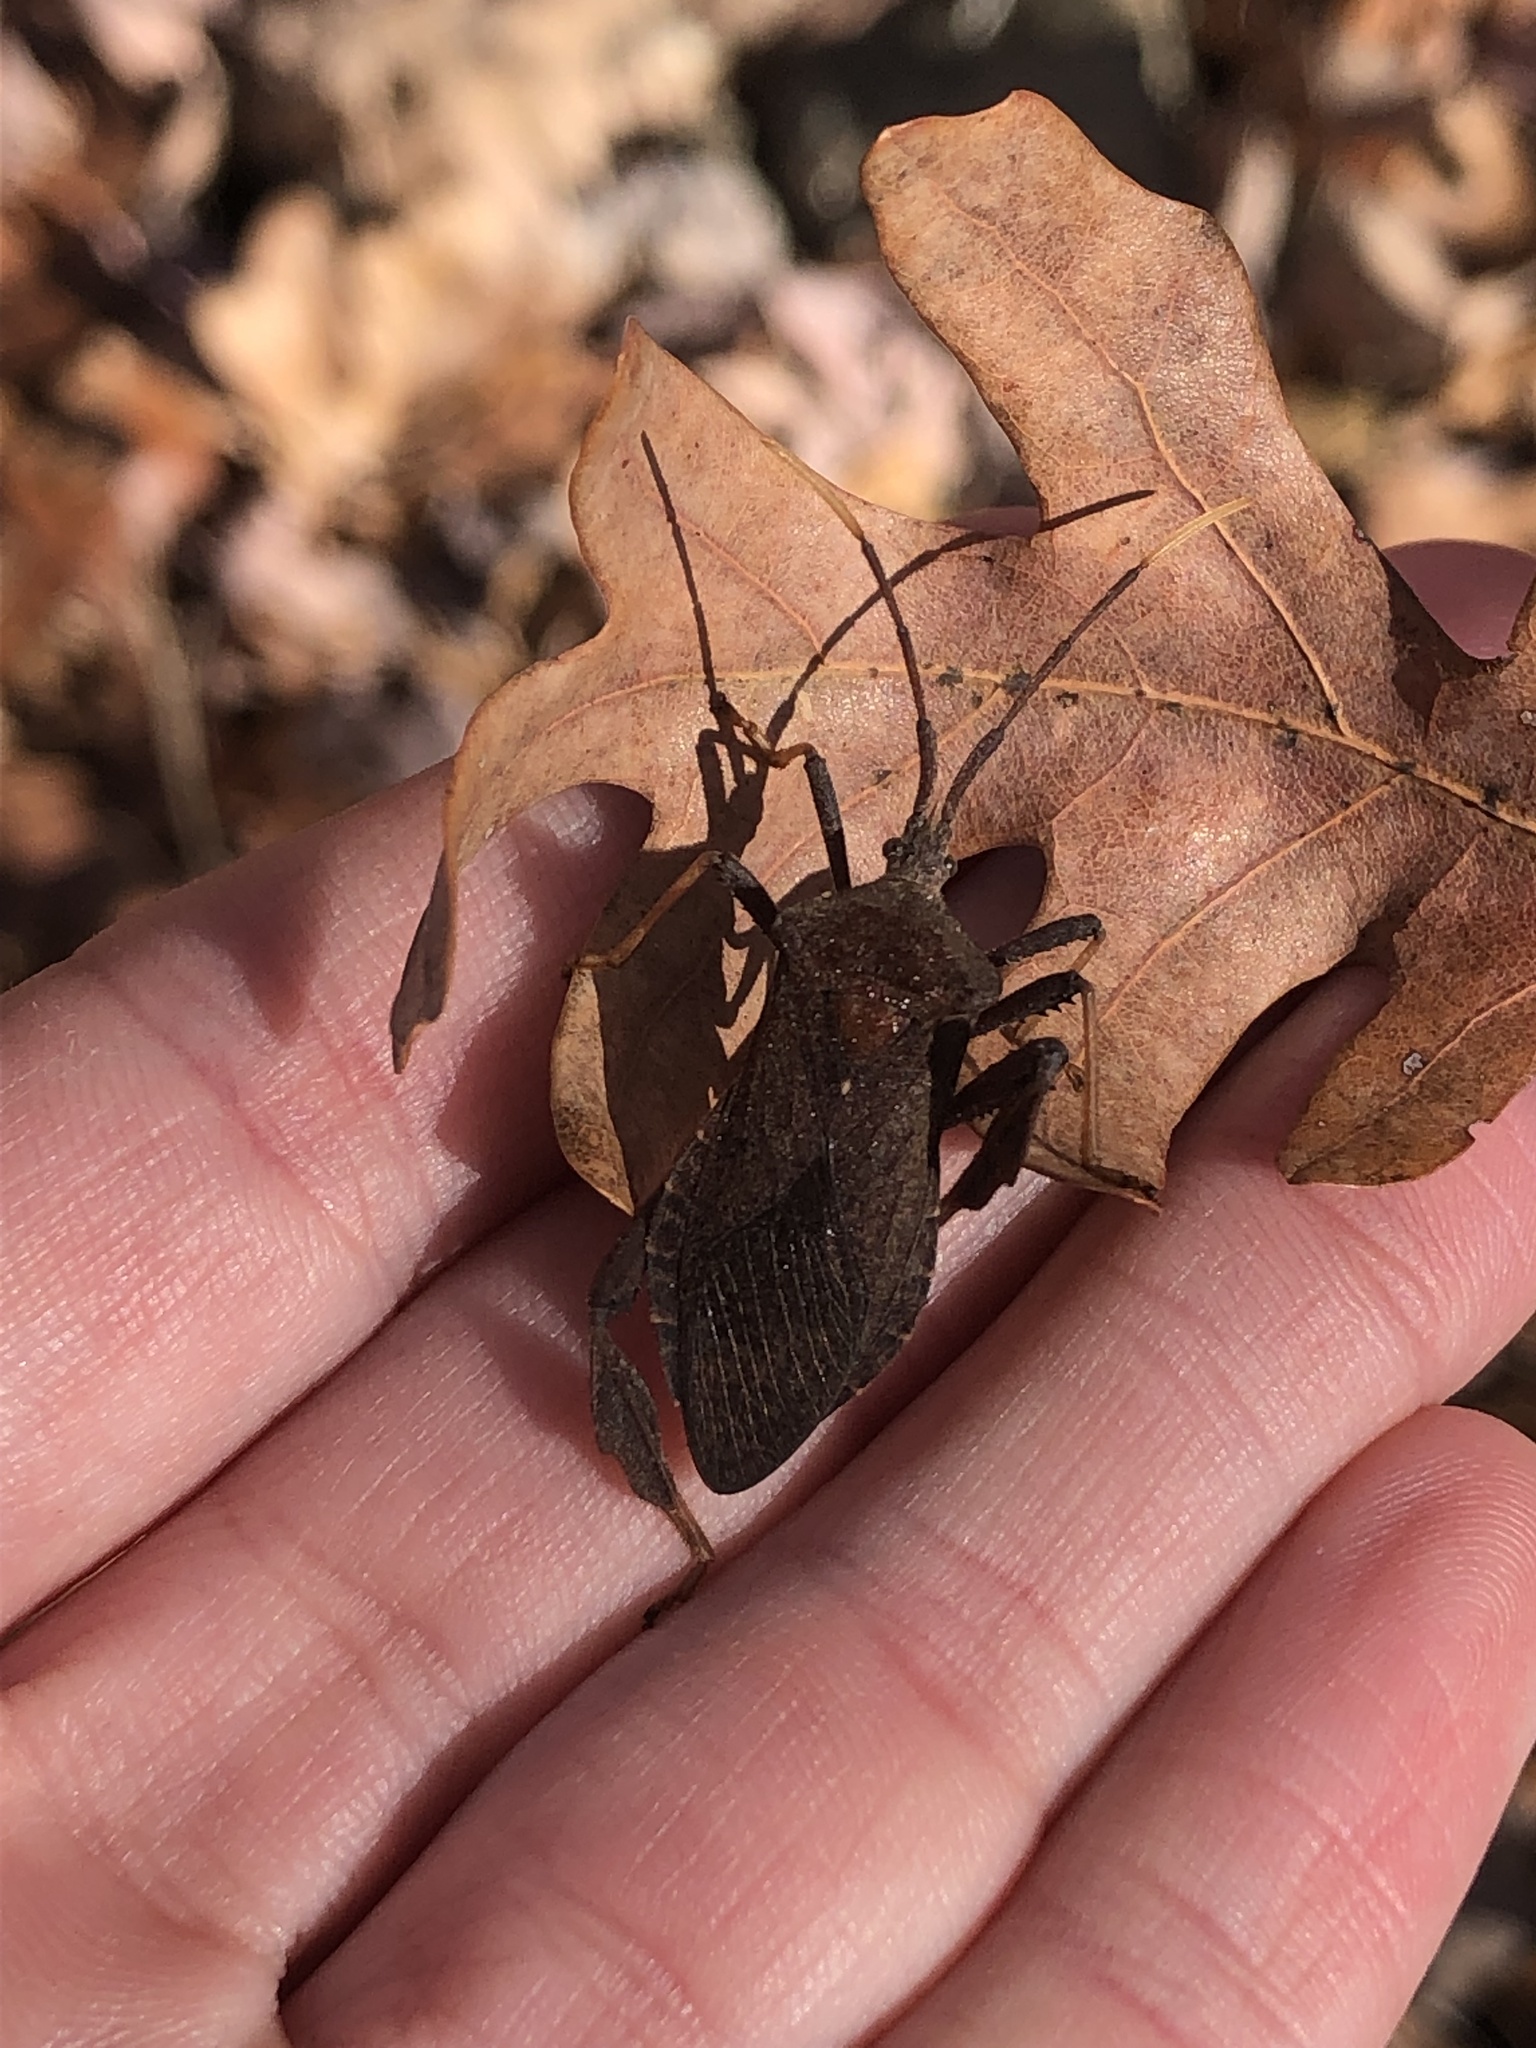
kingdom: Animalia
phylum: Arthropoda
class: Insecta
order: Hemiptera
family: Coreidae
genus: Acanthocephala
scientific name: Acanthocephala terminalis
